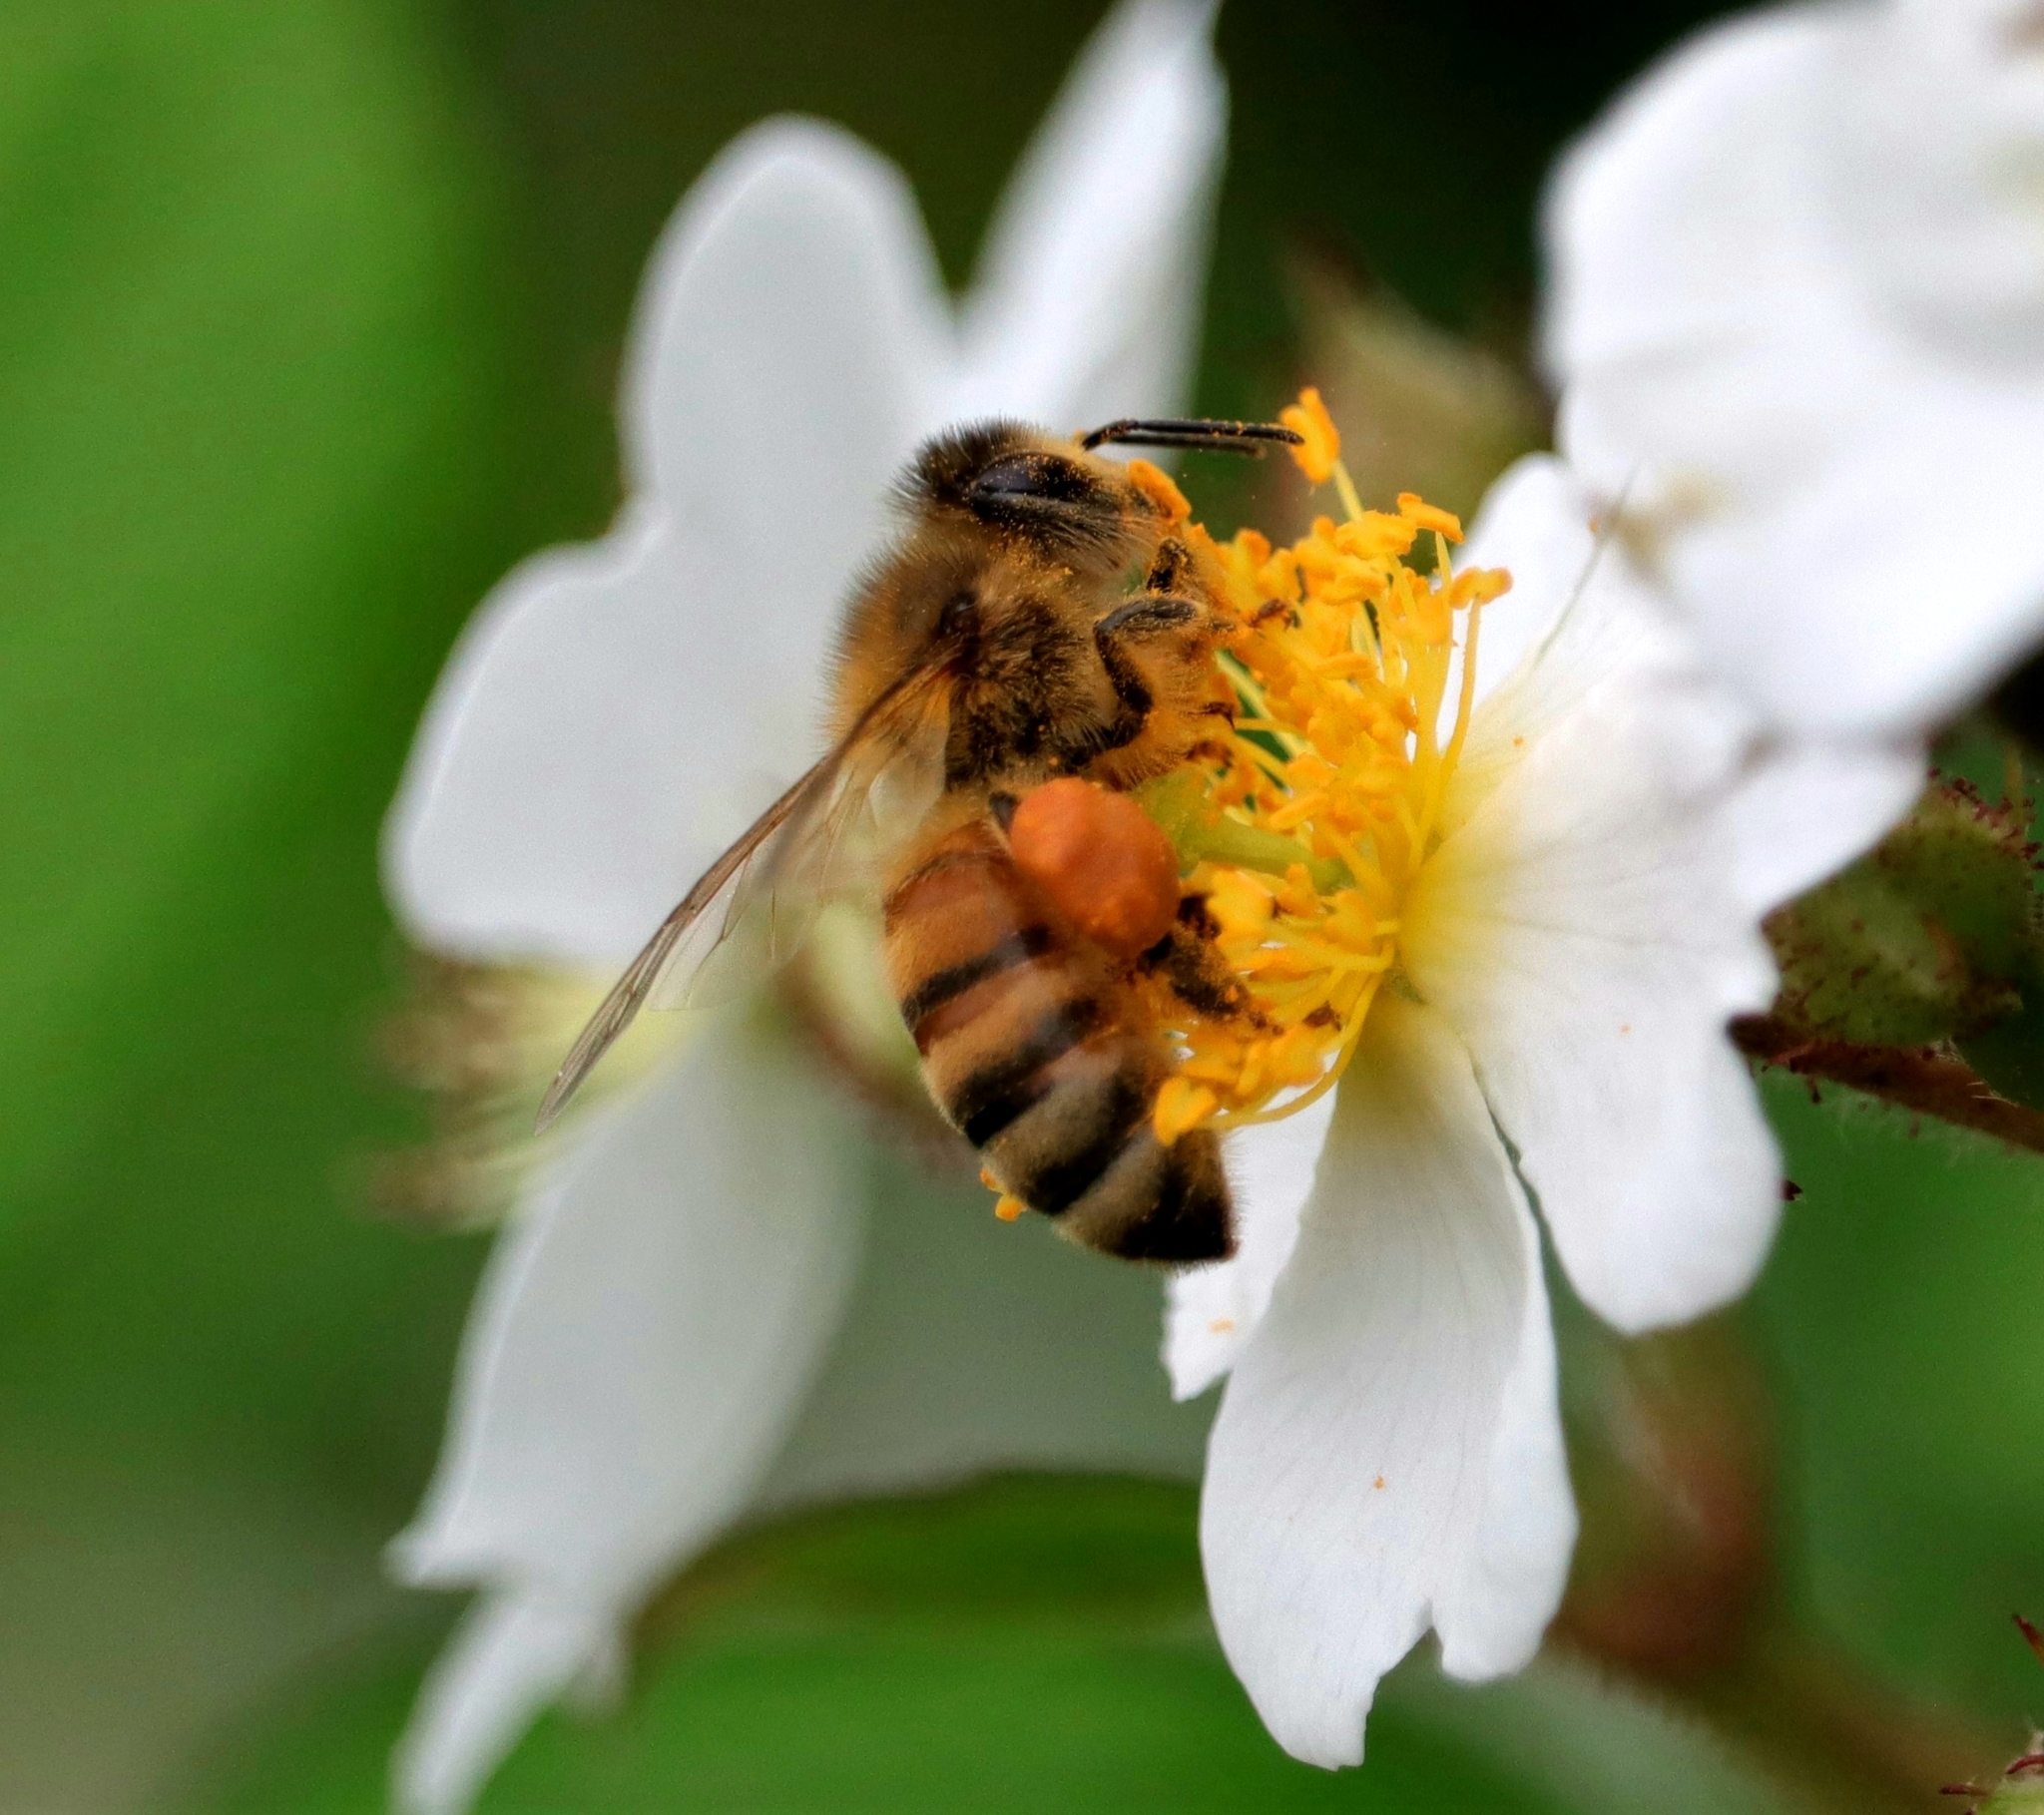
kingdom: Animalia
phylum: Arthropoda
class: Insecta
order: Hymenoptera
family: Apidae
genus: Apis
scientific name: Apis mellifera
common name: Honey bee
